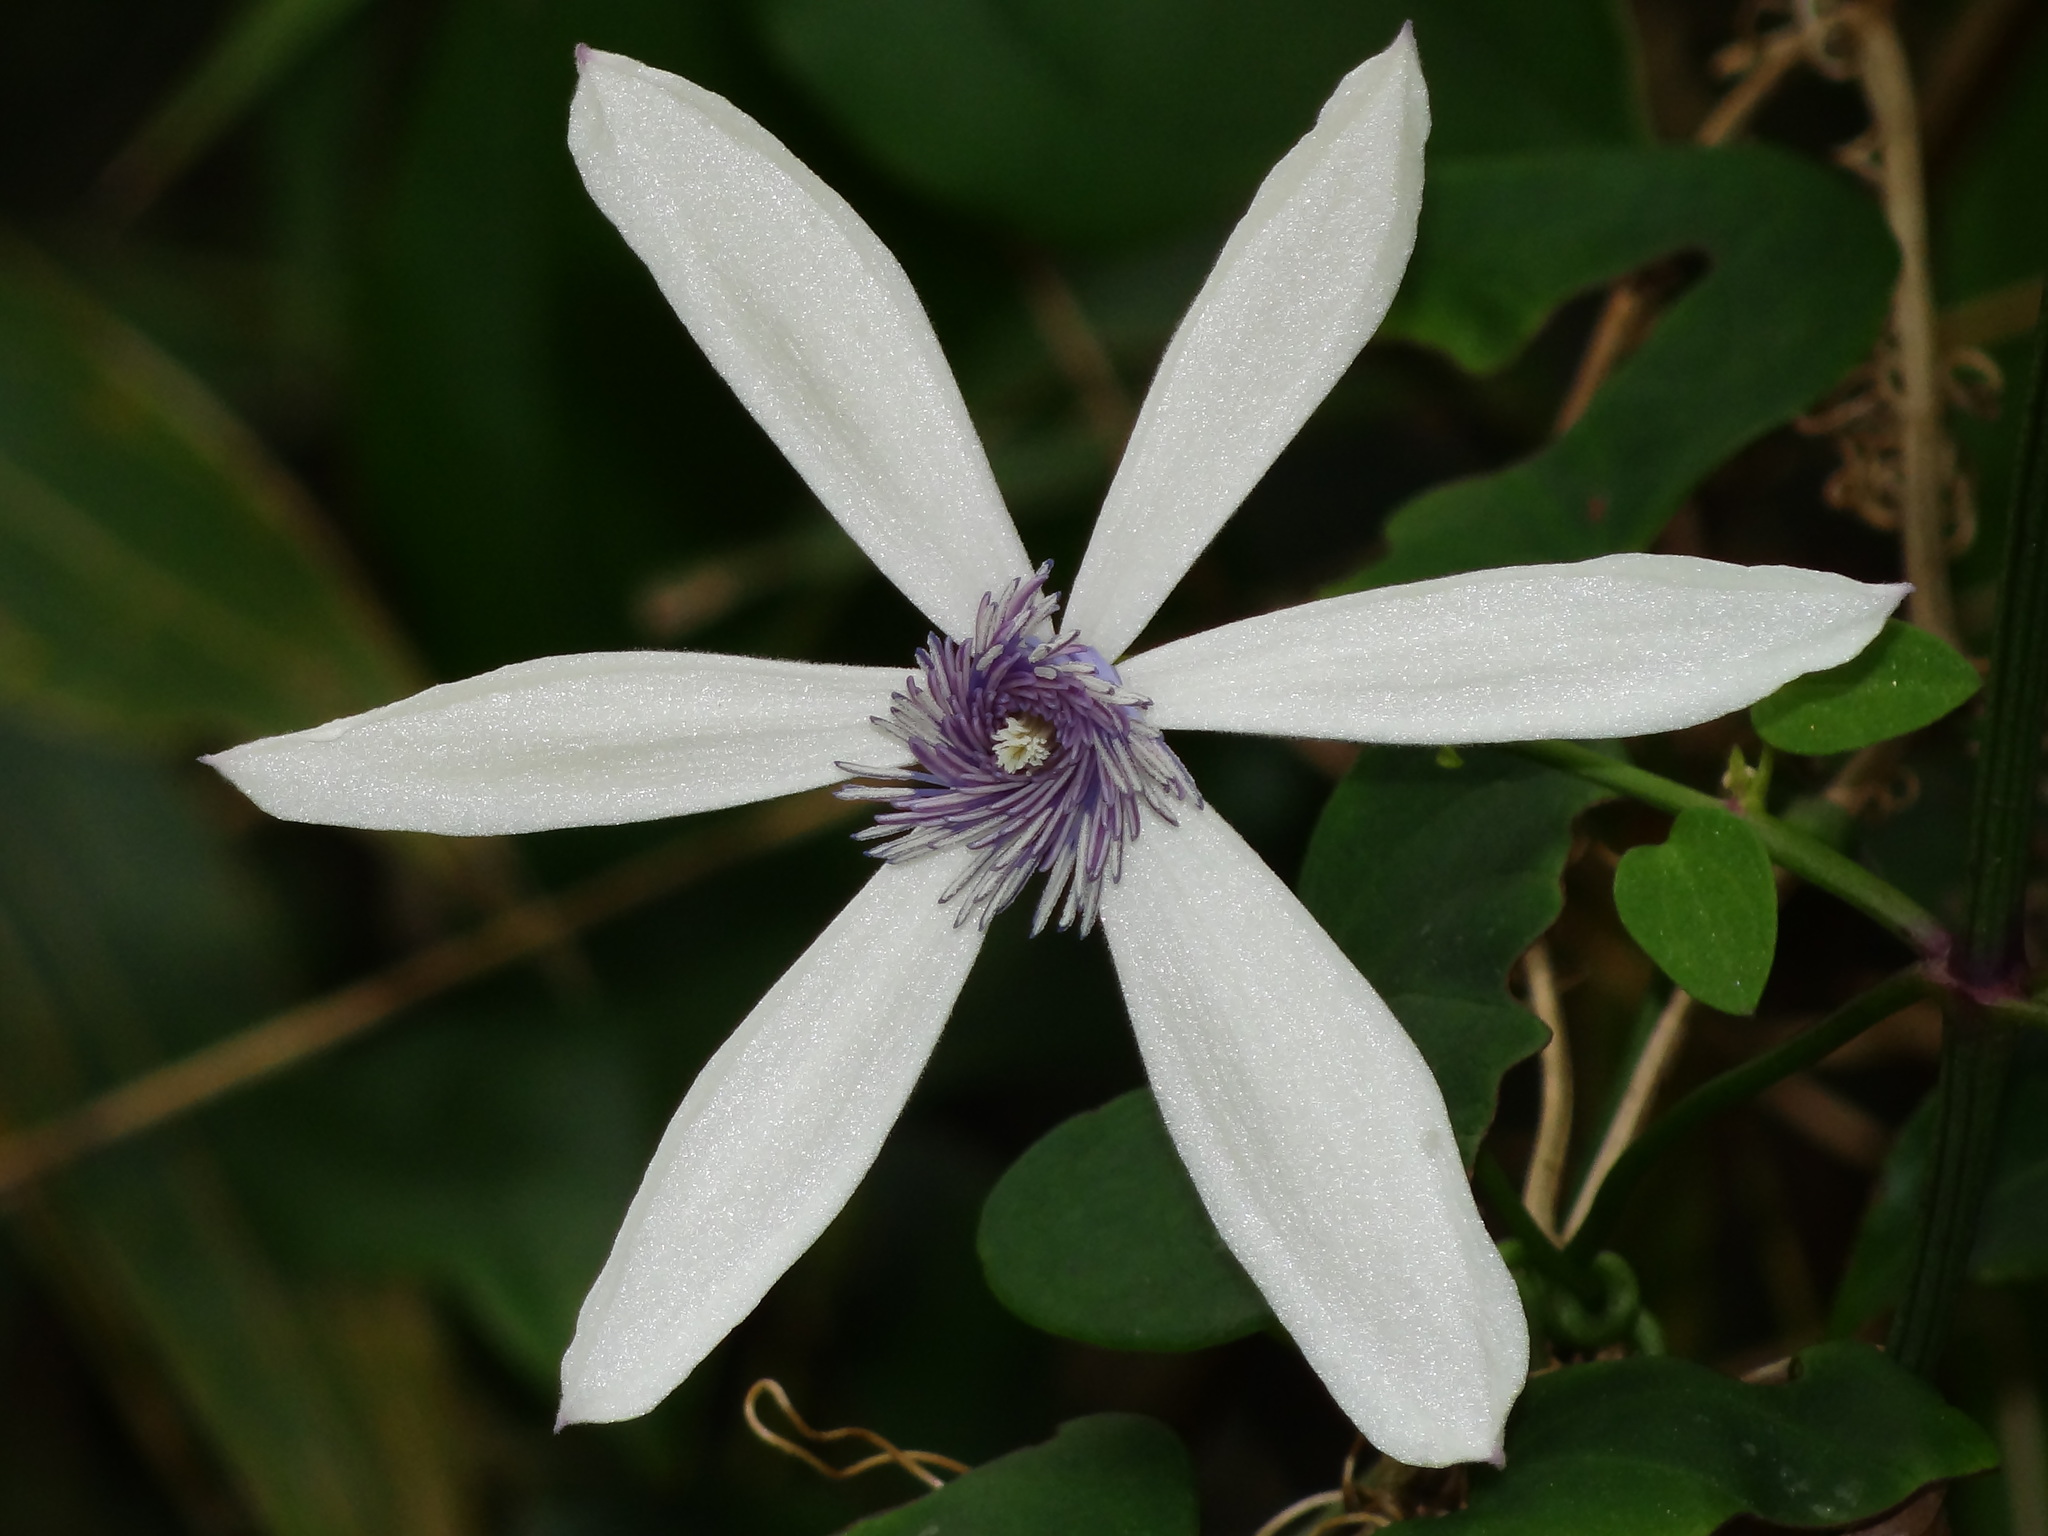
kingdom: Plantae
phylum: Tracheophyta
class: Magnoliopsida
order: Ranunculales
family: Ranunculaceae
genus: Clematis
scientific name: Clematis akoensis
